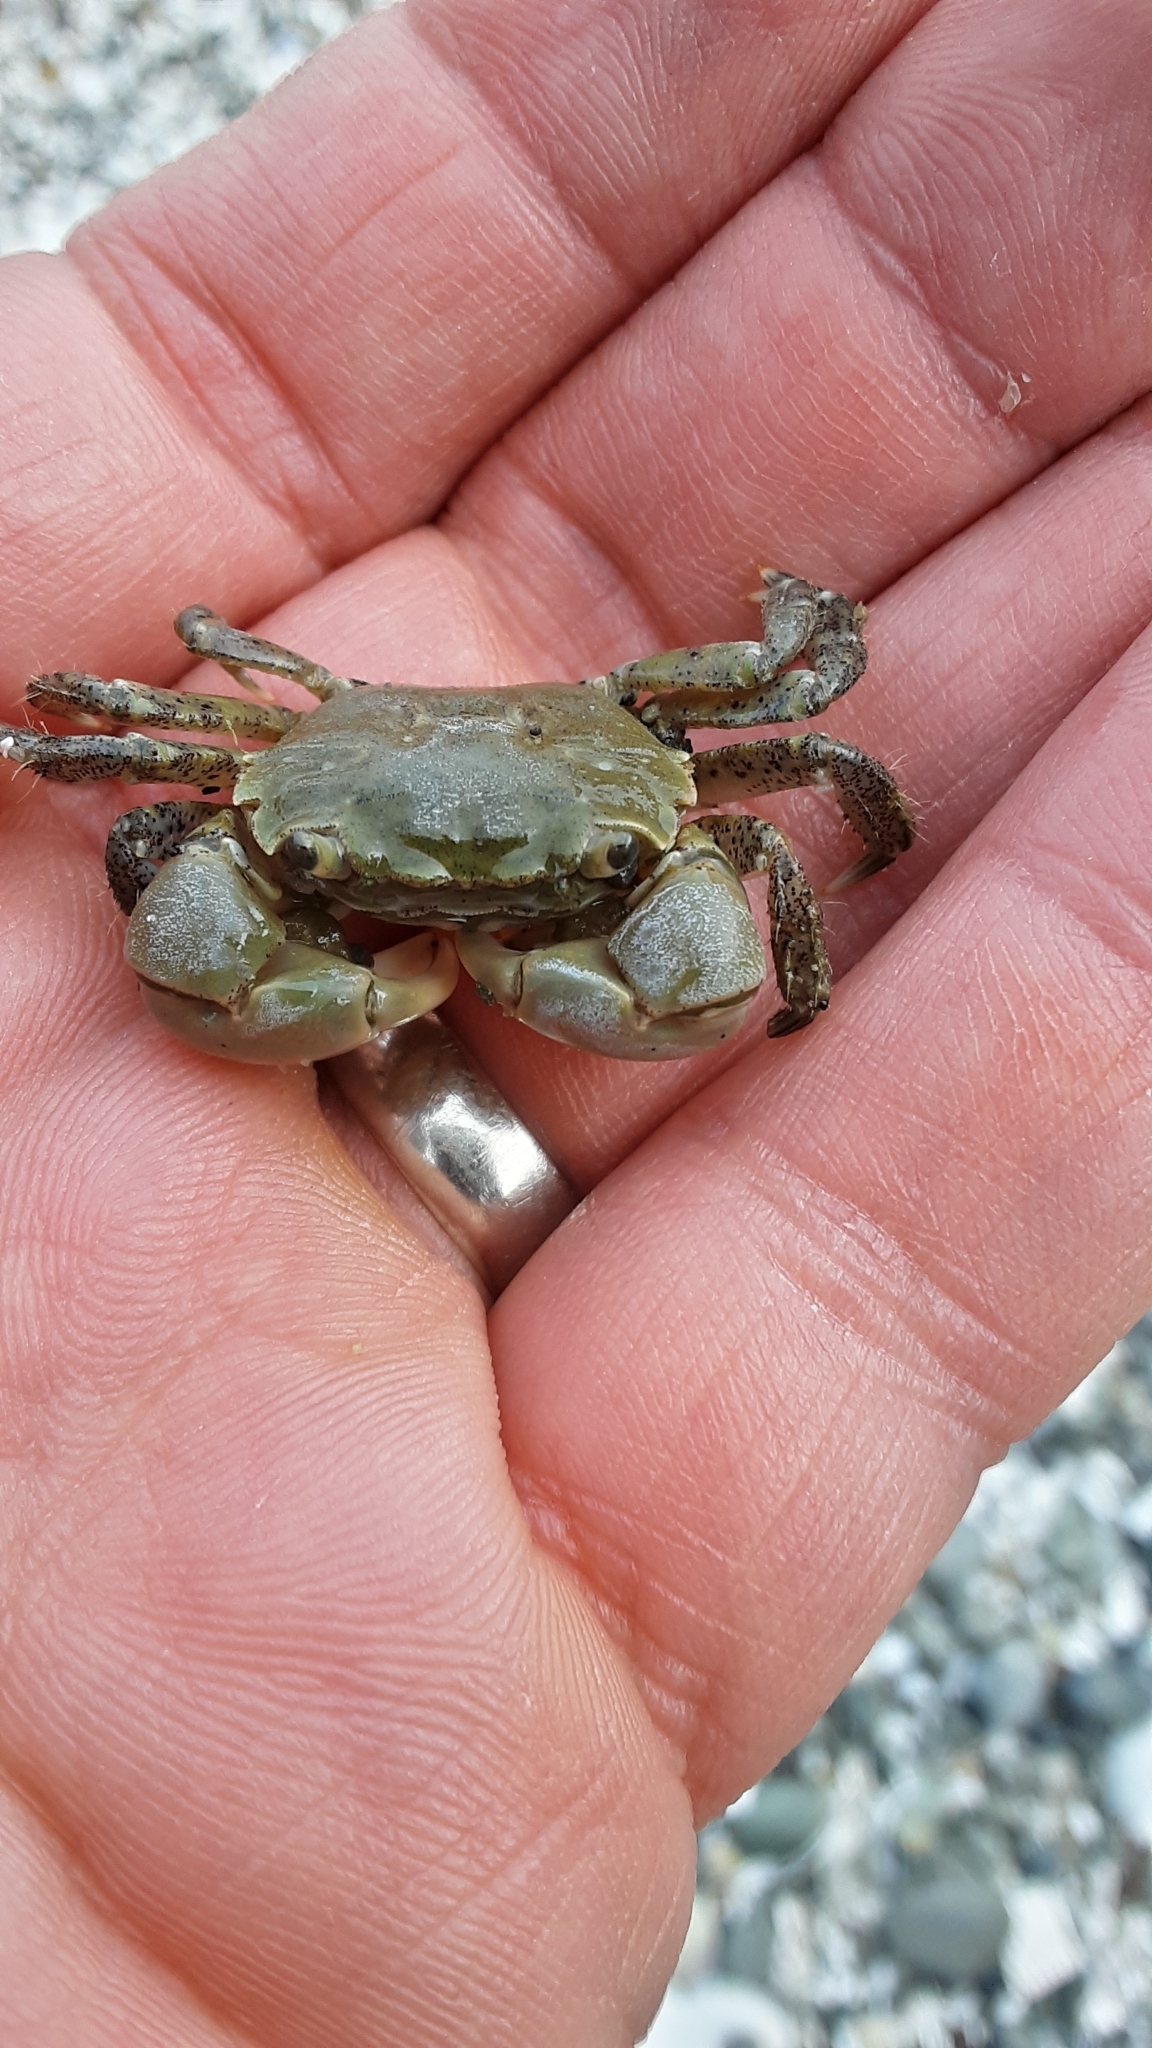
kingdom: Animalia
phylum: Arthropoda
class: Malacostraca
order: Decapoda
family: Varunidae
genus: Hemigrapsus
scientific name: Hemigrapsus oregonensis
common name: Yellow shore crab
